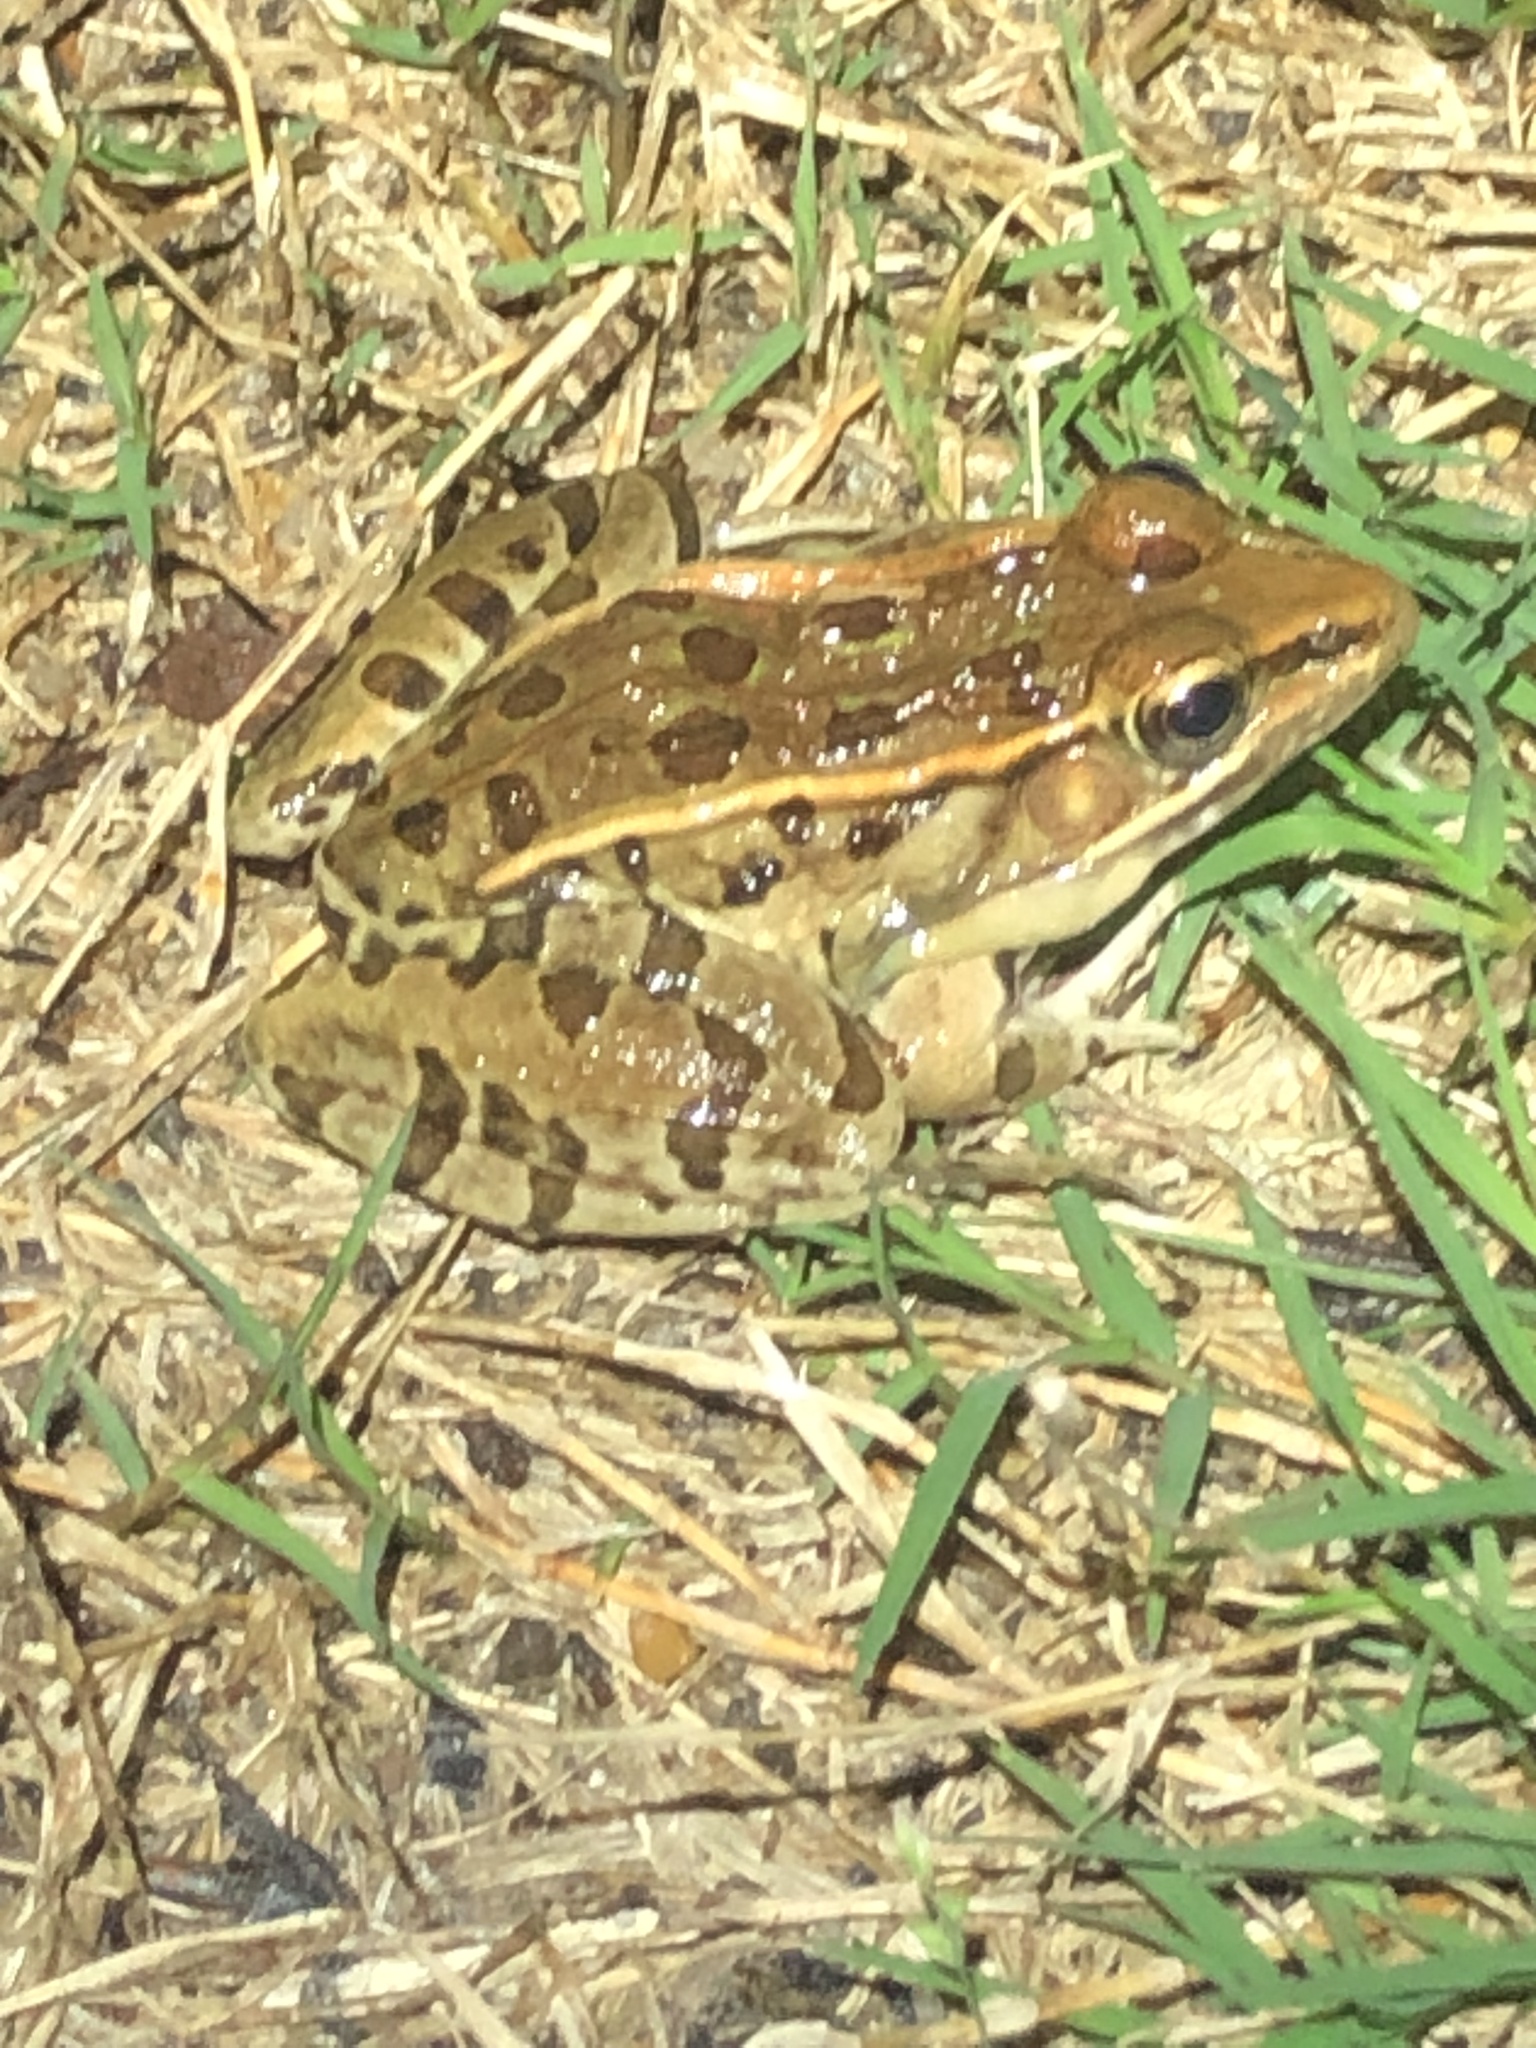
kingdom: Animalia
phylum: Chordata
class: Amphibia
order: Anura
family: Ranidae
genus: Lithobates
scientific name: Lithobates sphenocephalus
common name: Southern leopard frog
